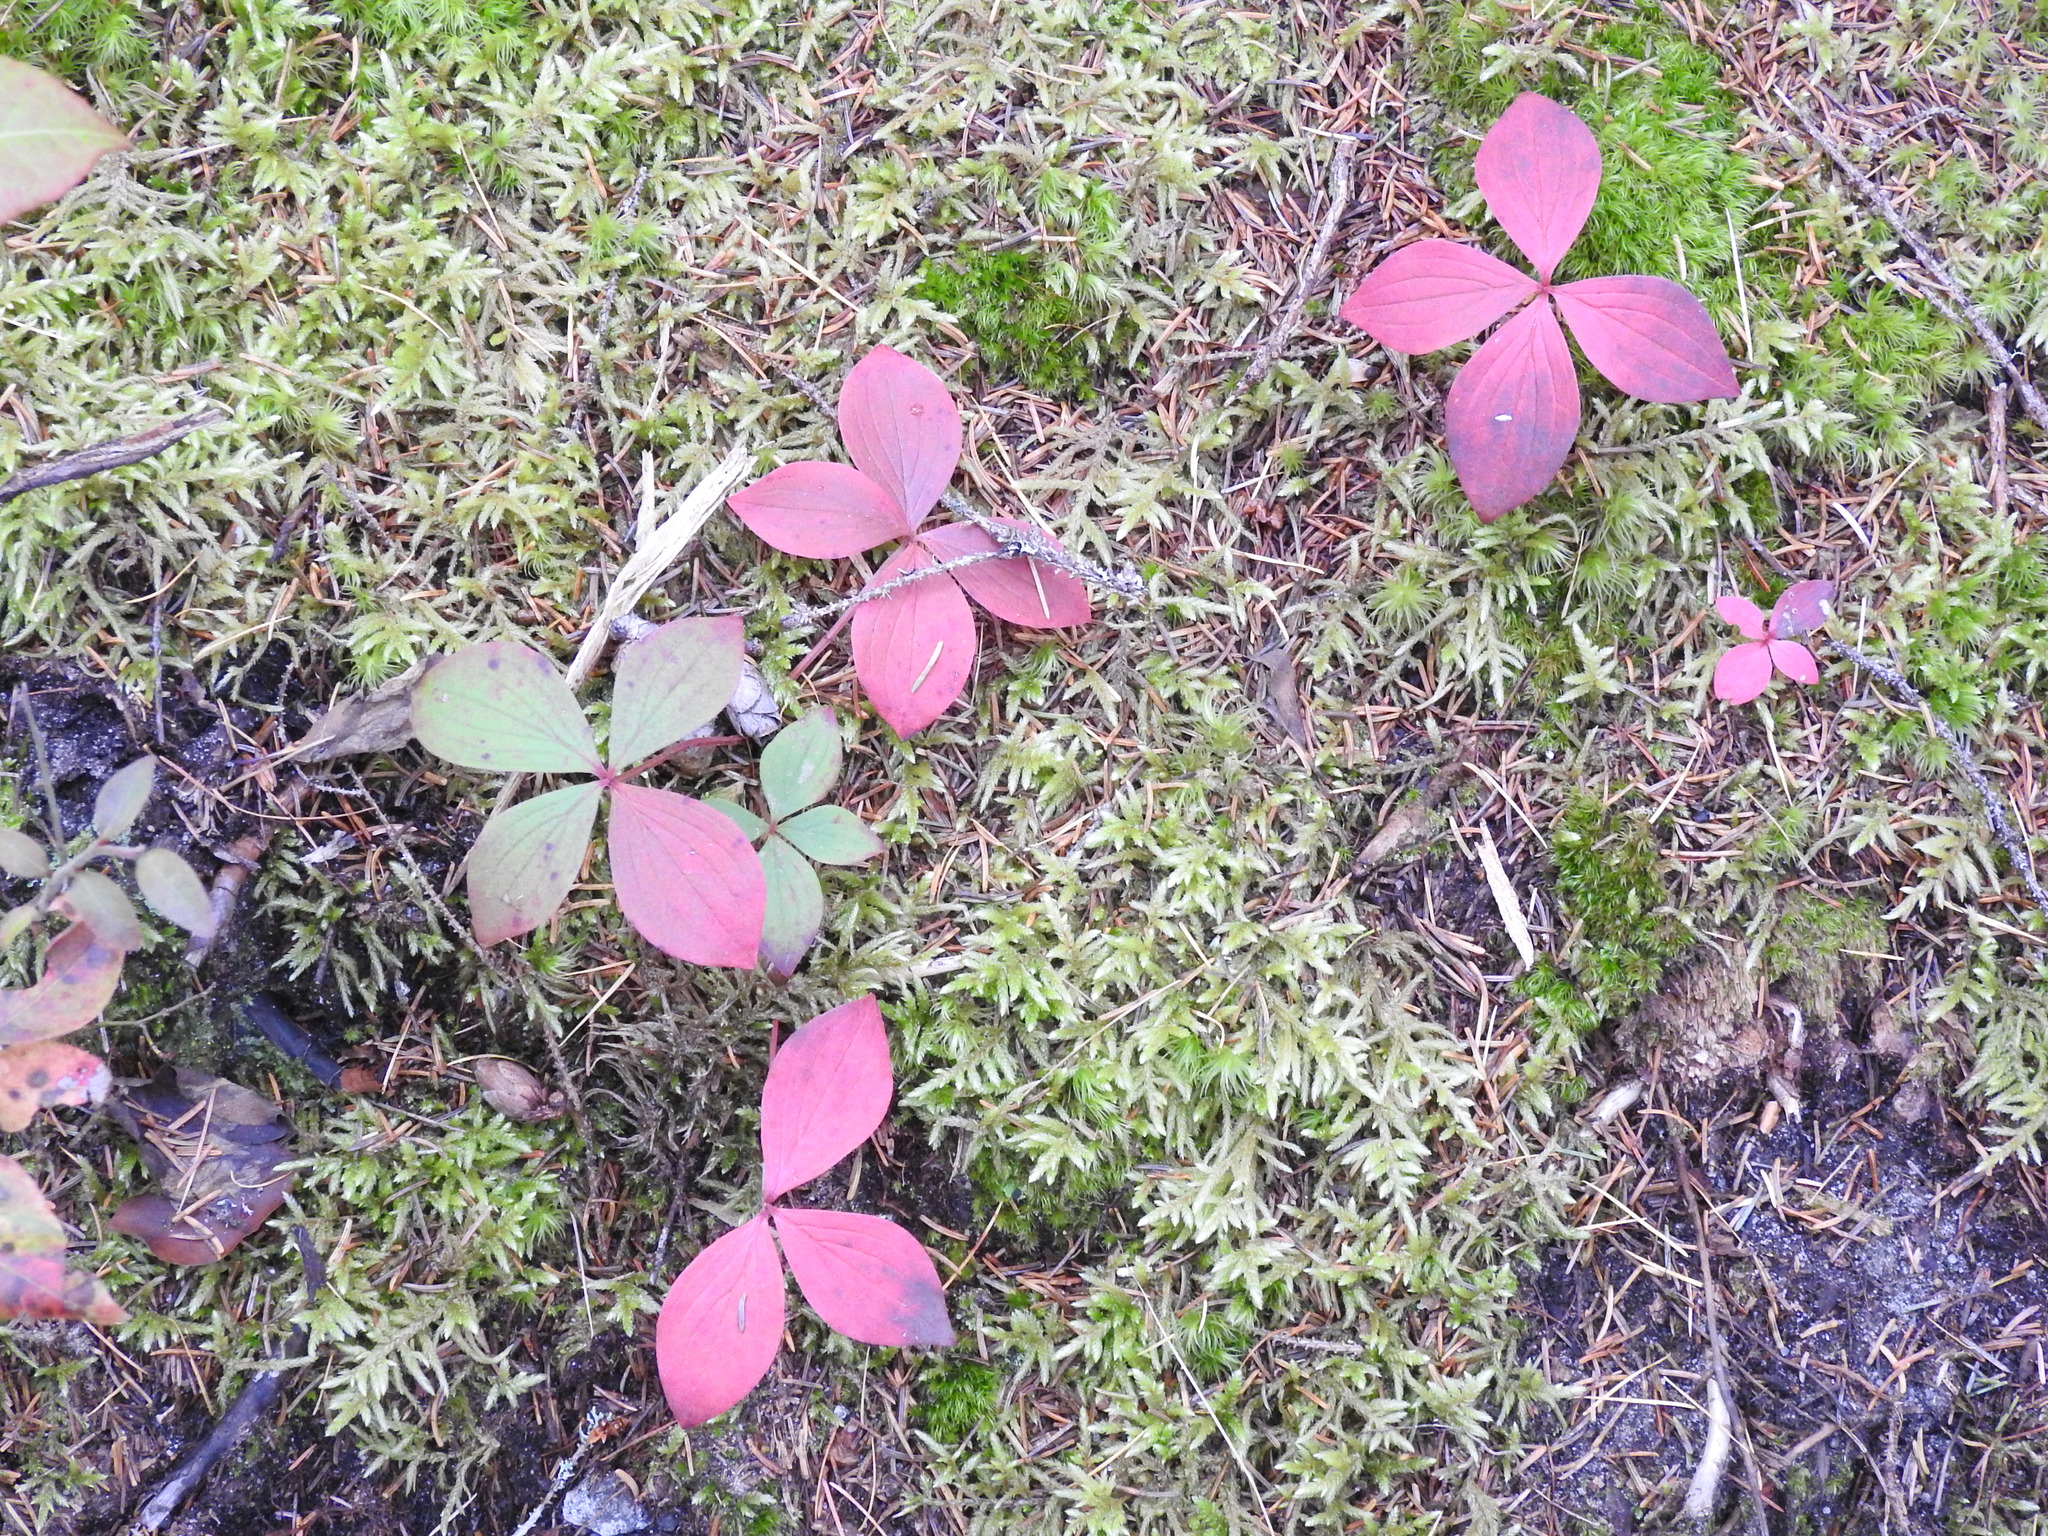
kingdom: Plantae
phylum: Tracheophyta
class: Magnoliopsida
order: Cornales
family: Cornaceae
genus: Cornus
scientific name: Cornus canadensis
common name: Creeping dogwood
